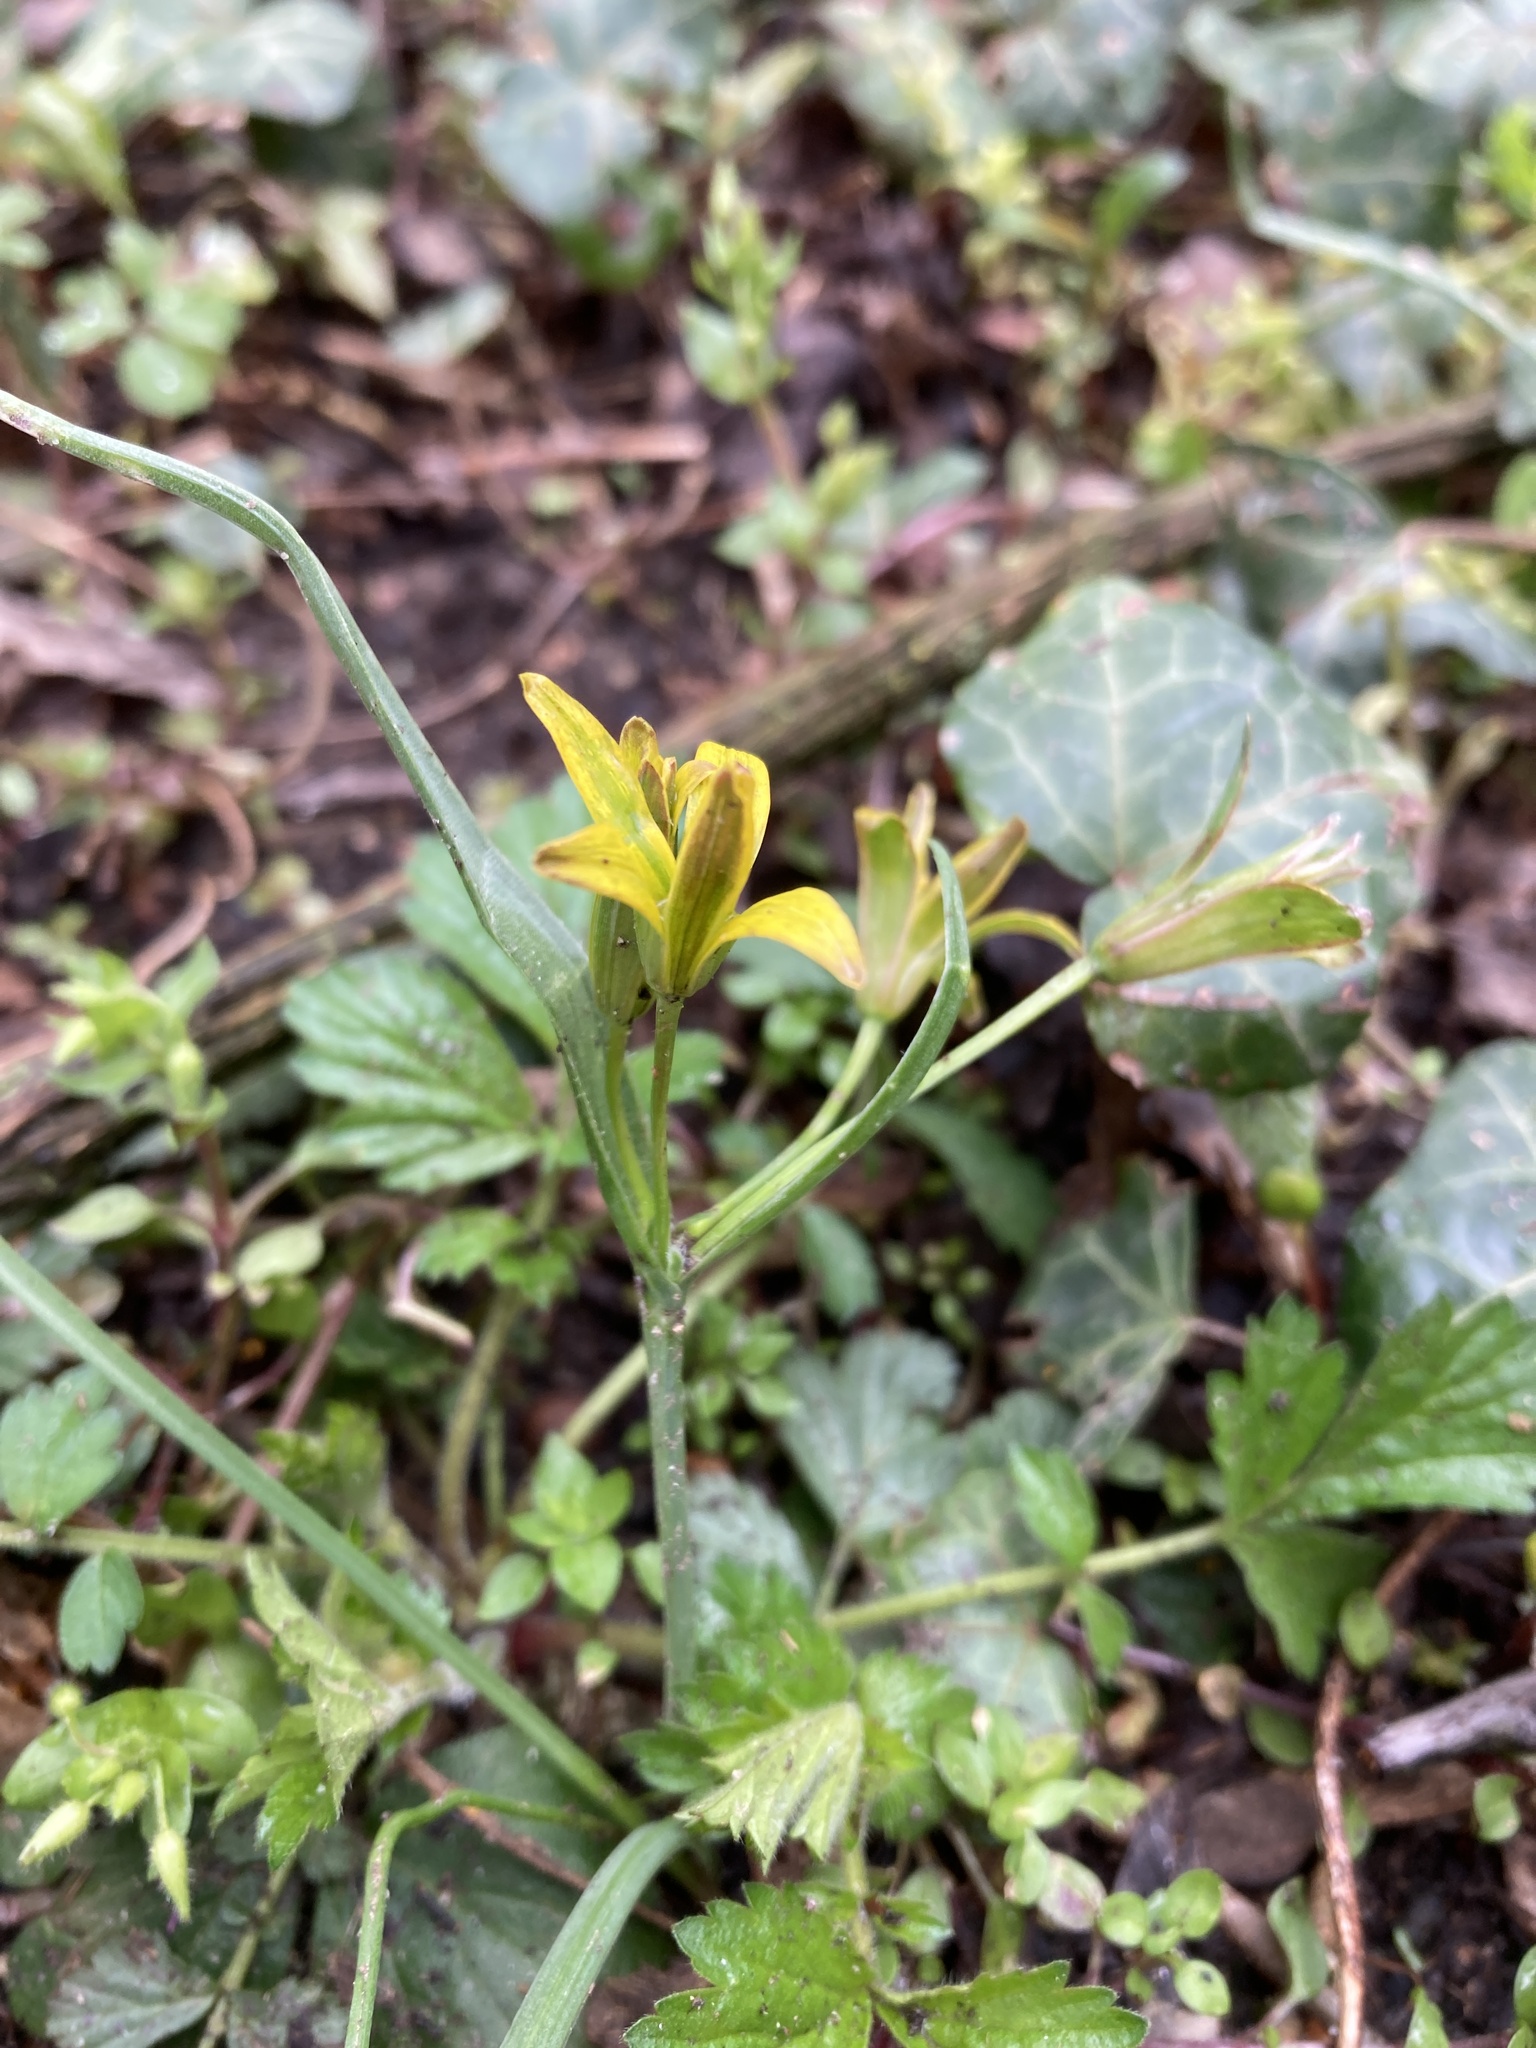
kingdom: Plantae
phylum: Tracheophyta
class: Liliopsida
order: Liliales
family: Liliaceae
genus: Gagea
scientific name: Gagea lutea
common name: Yellow star-of-bethlehem
